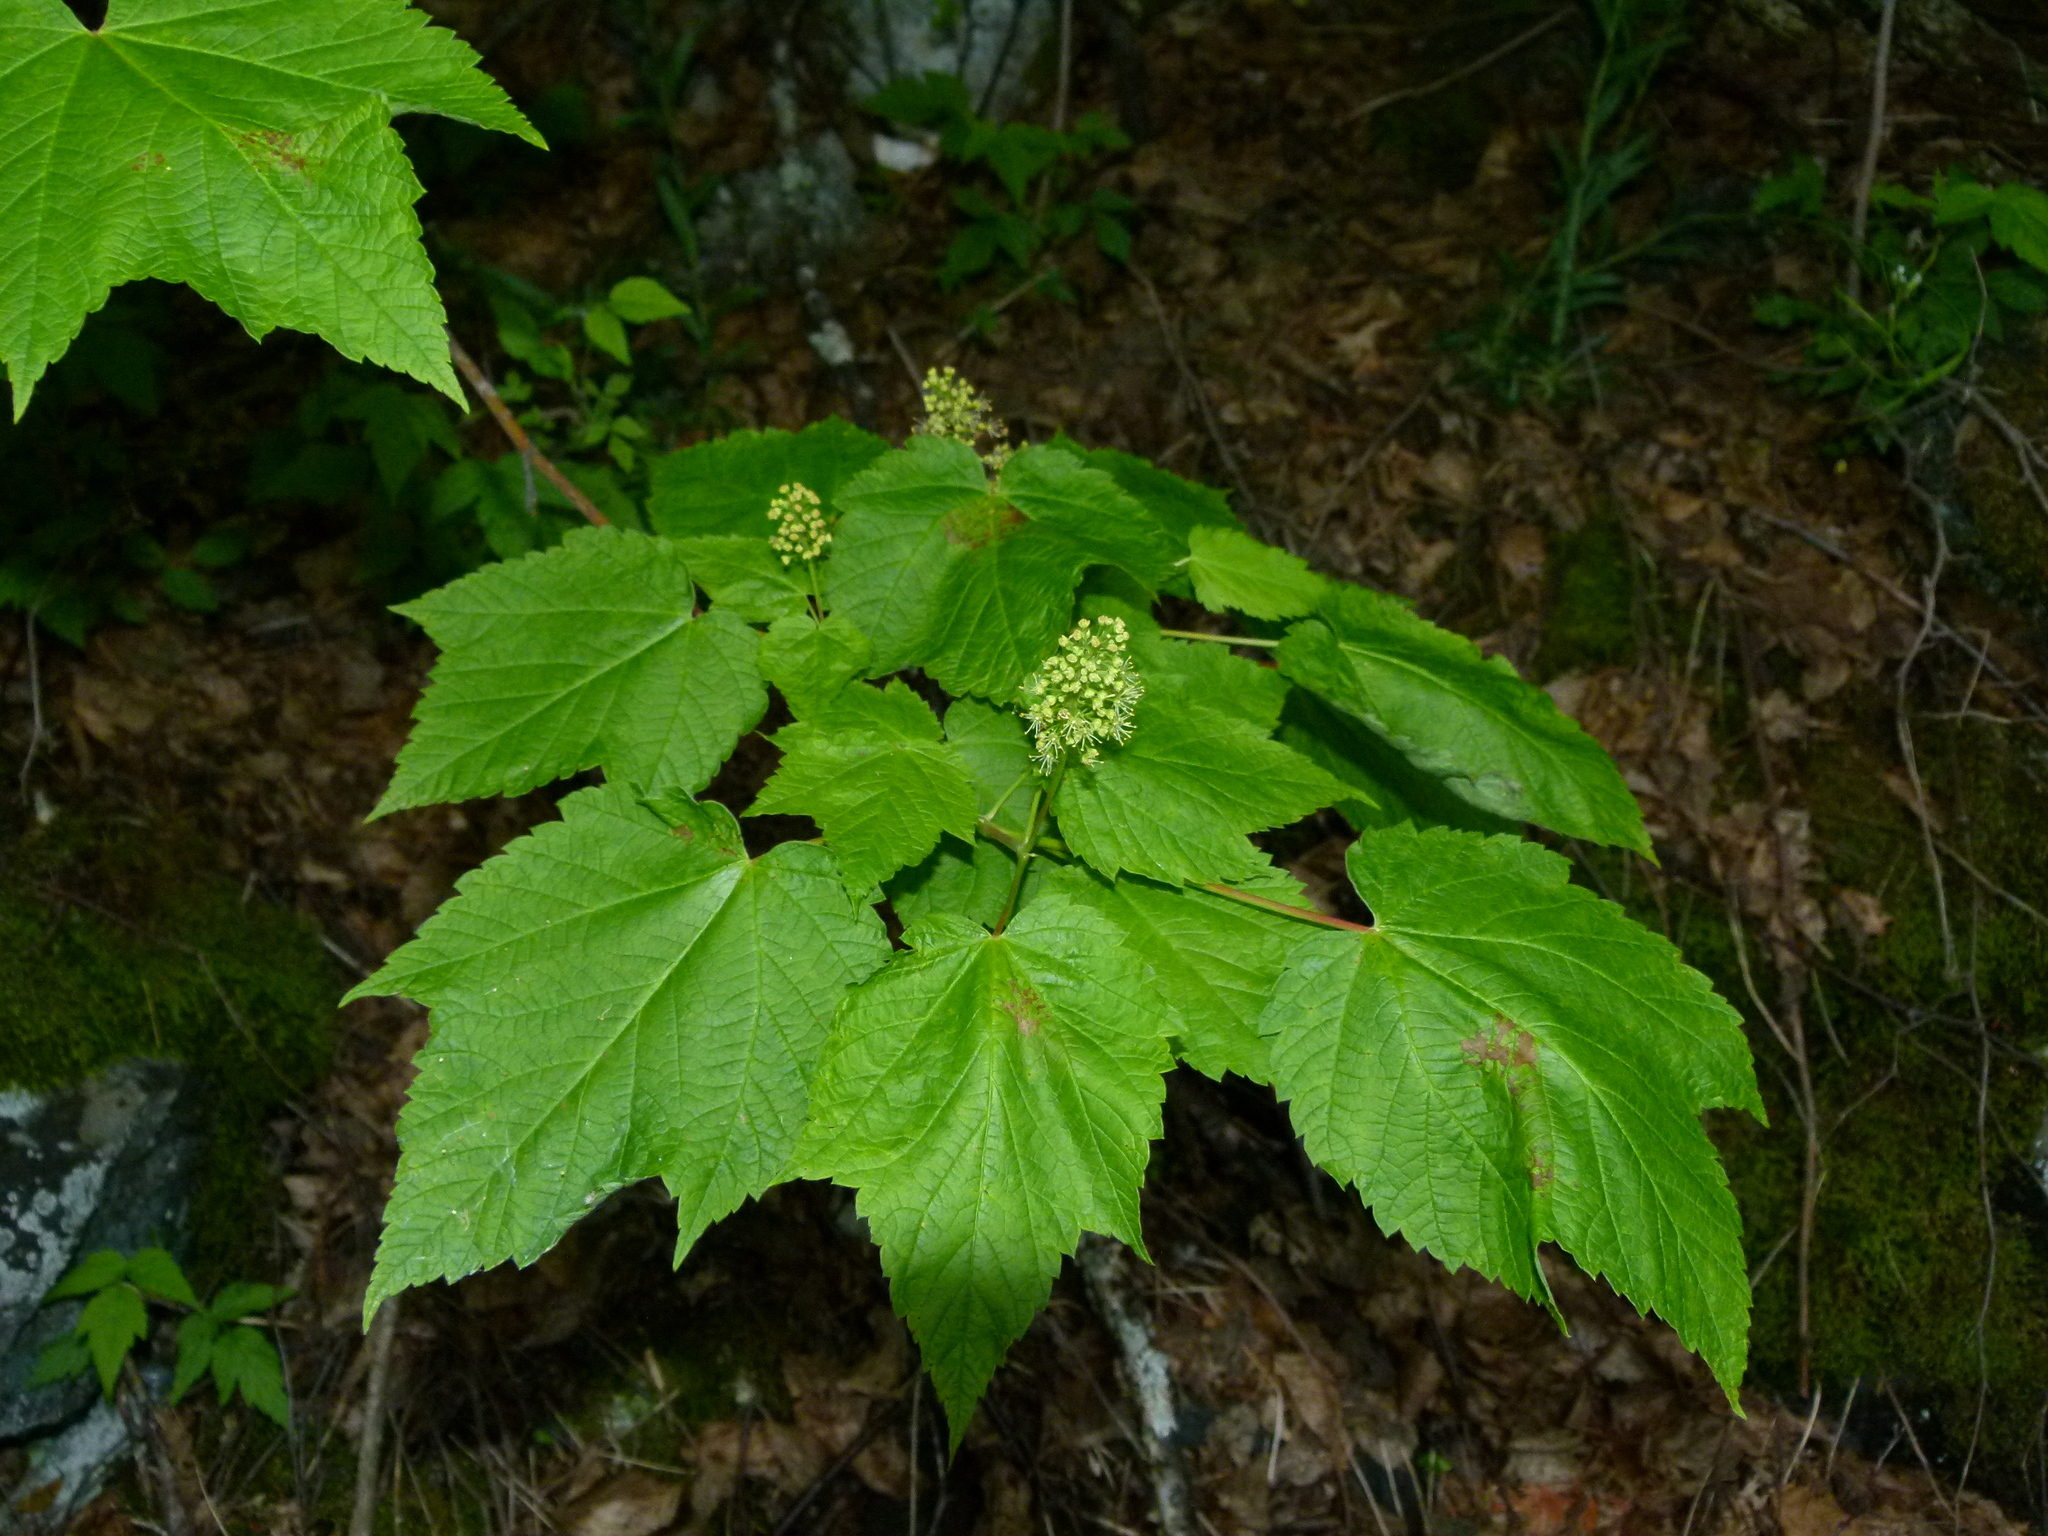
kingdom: Plantae
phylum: Tracheophyta
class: Magnoliopsida
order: Sapindales
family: Sapindaceae
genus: Acer
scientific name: Acer spicatum
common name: Mountain maple
